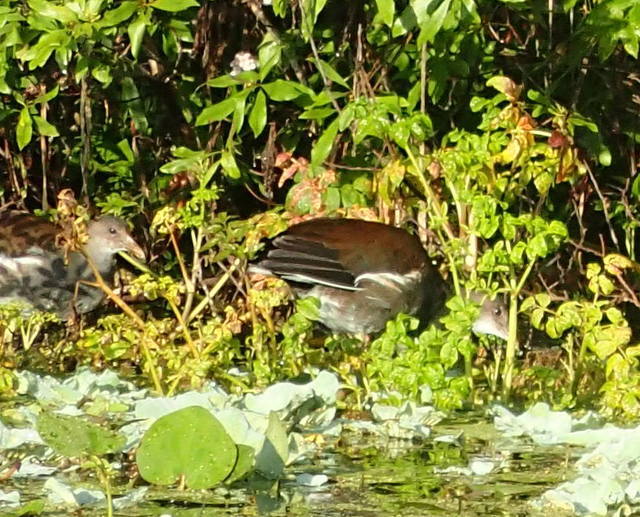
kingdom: Animalia
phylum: Chordata
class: Aves
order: Gruiformes
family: Rallidae
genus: Gallinula
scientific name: Gallinula chloropus
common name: Common moorhen
